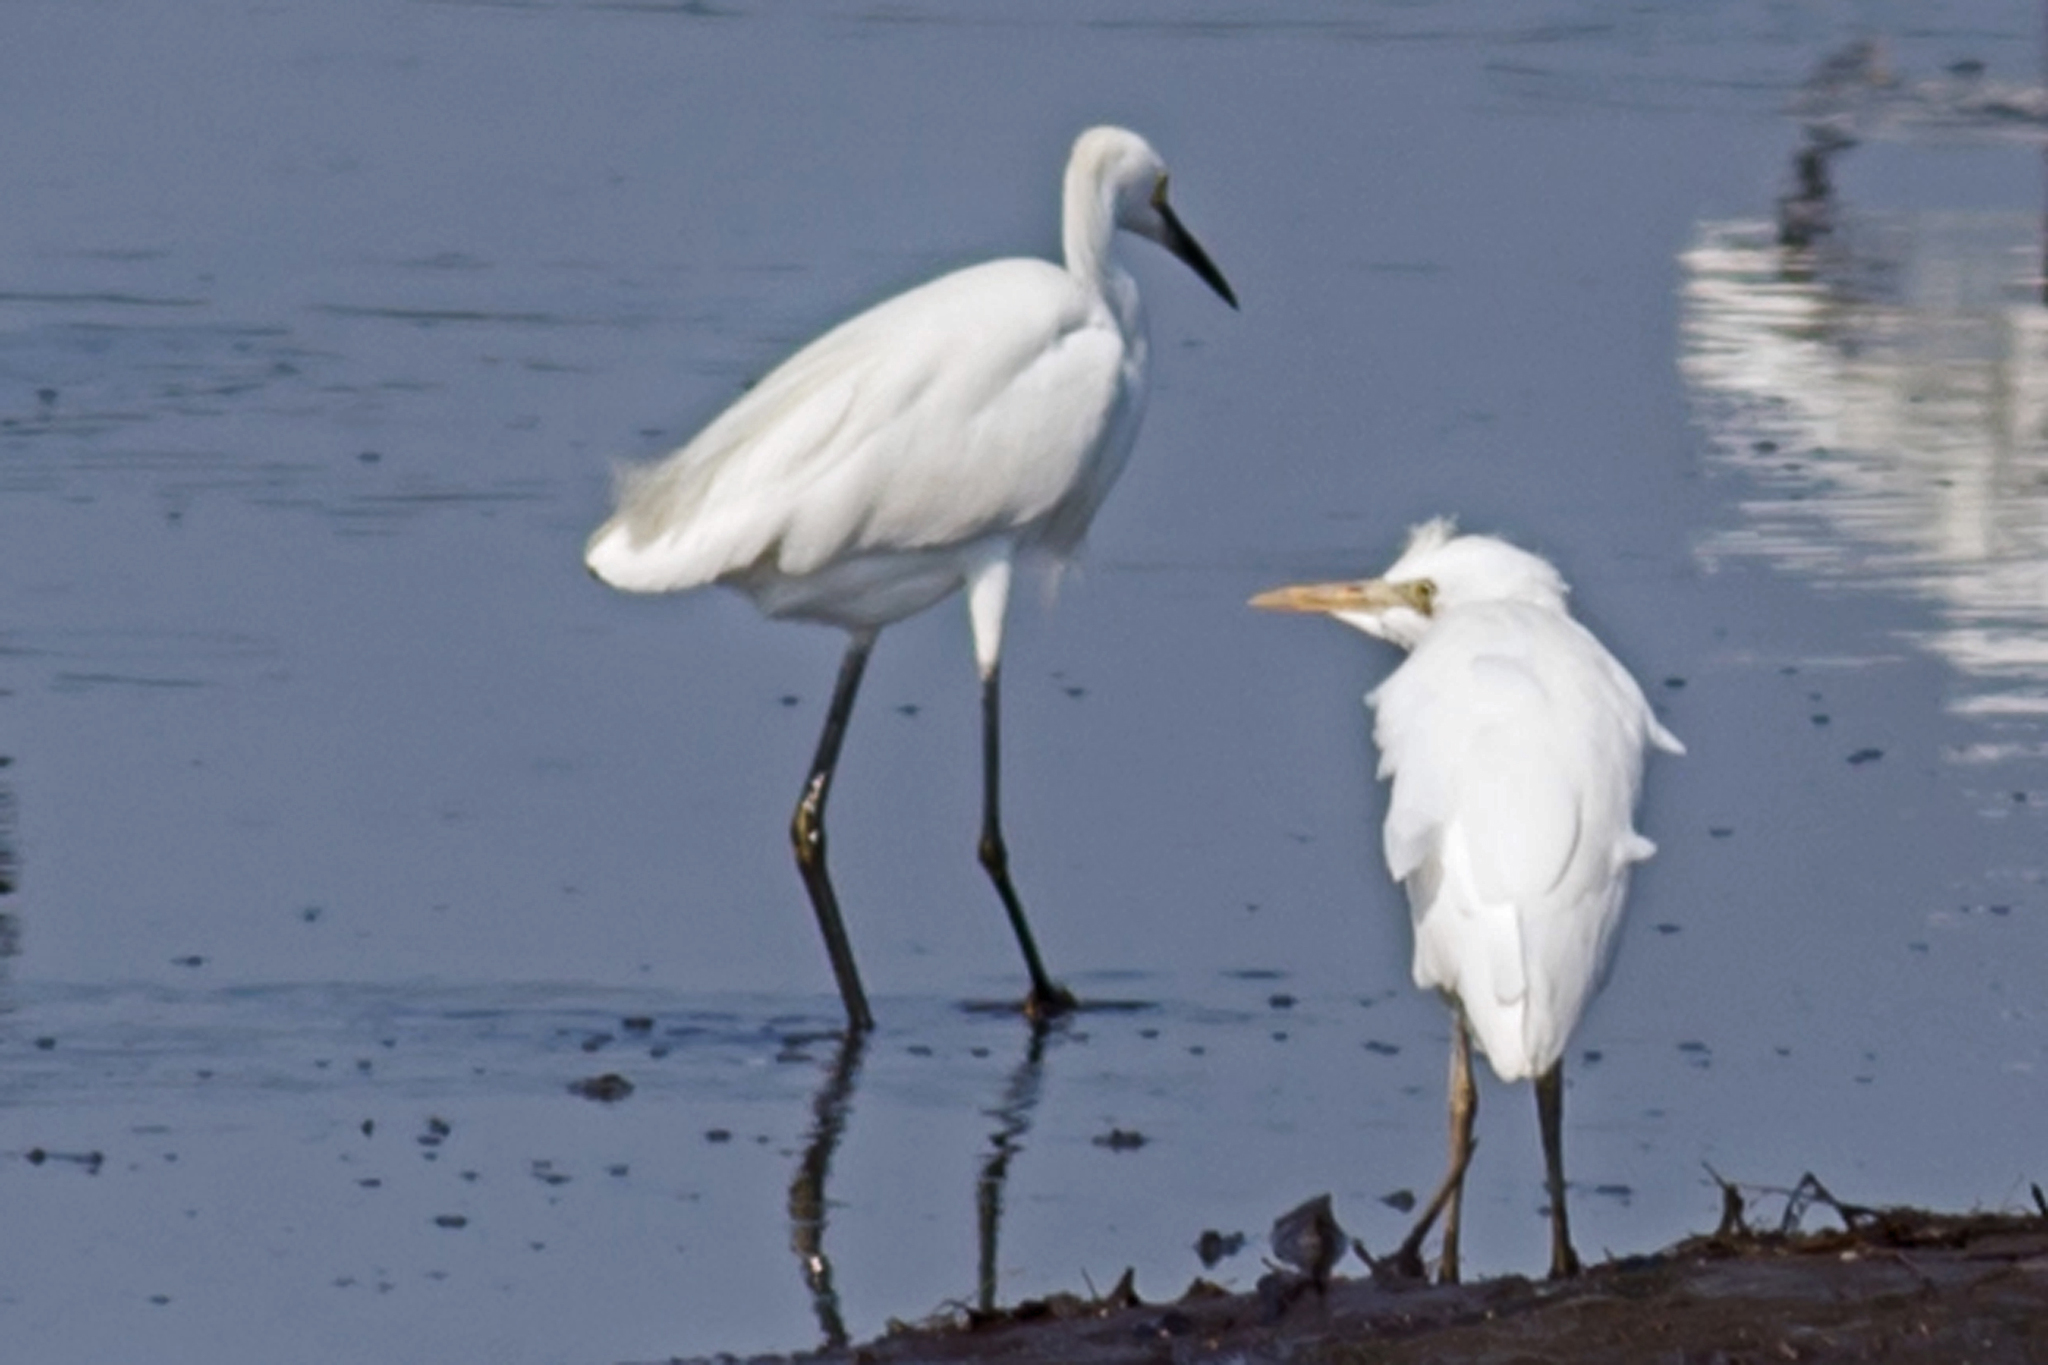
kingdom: Animalia
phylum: Chordata
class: Aves
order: Pelecaniformes
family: Ardeidae
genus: Bubulcus
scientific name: Bubulcus ibis
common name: Cattle egret
